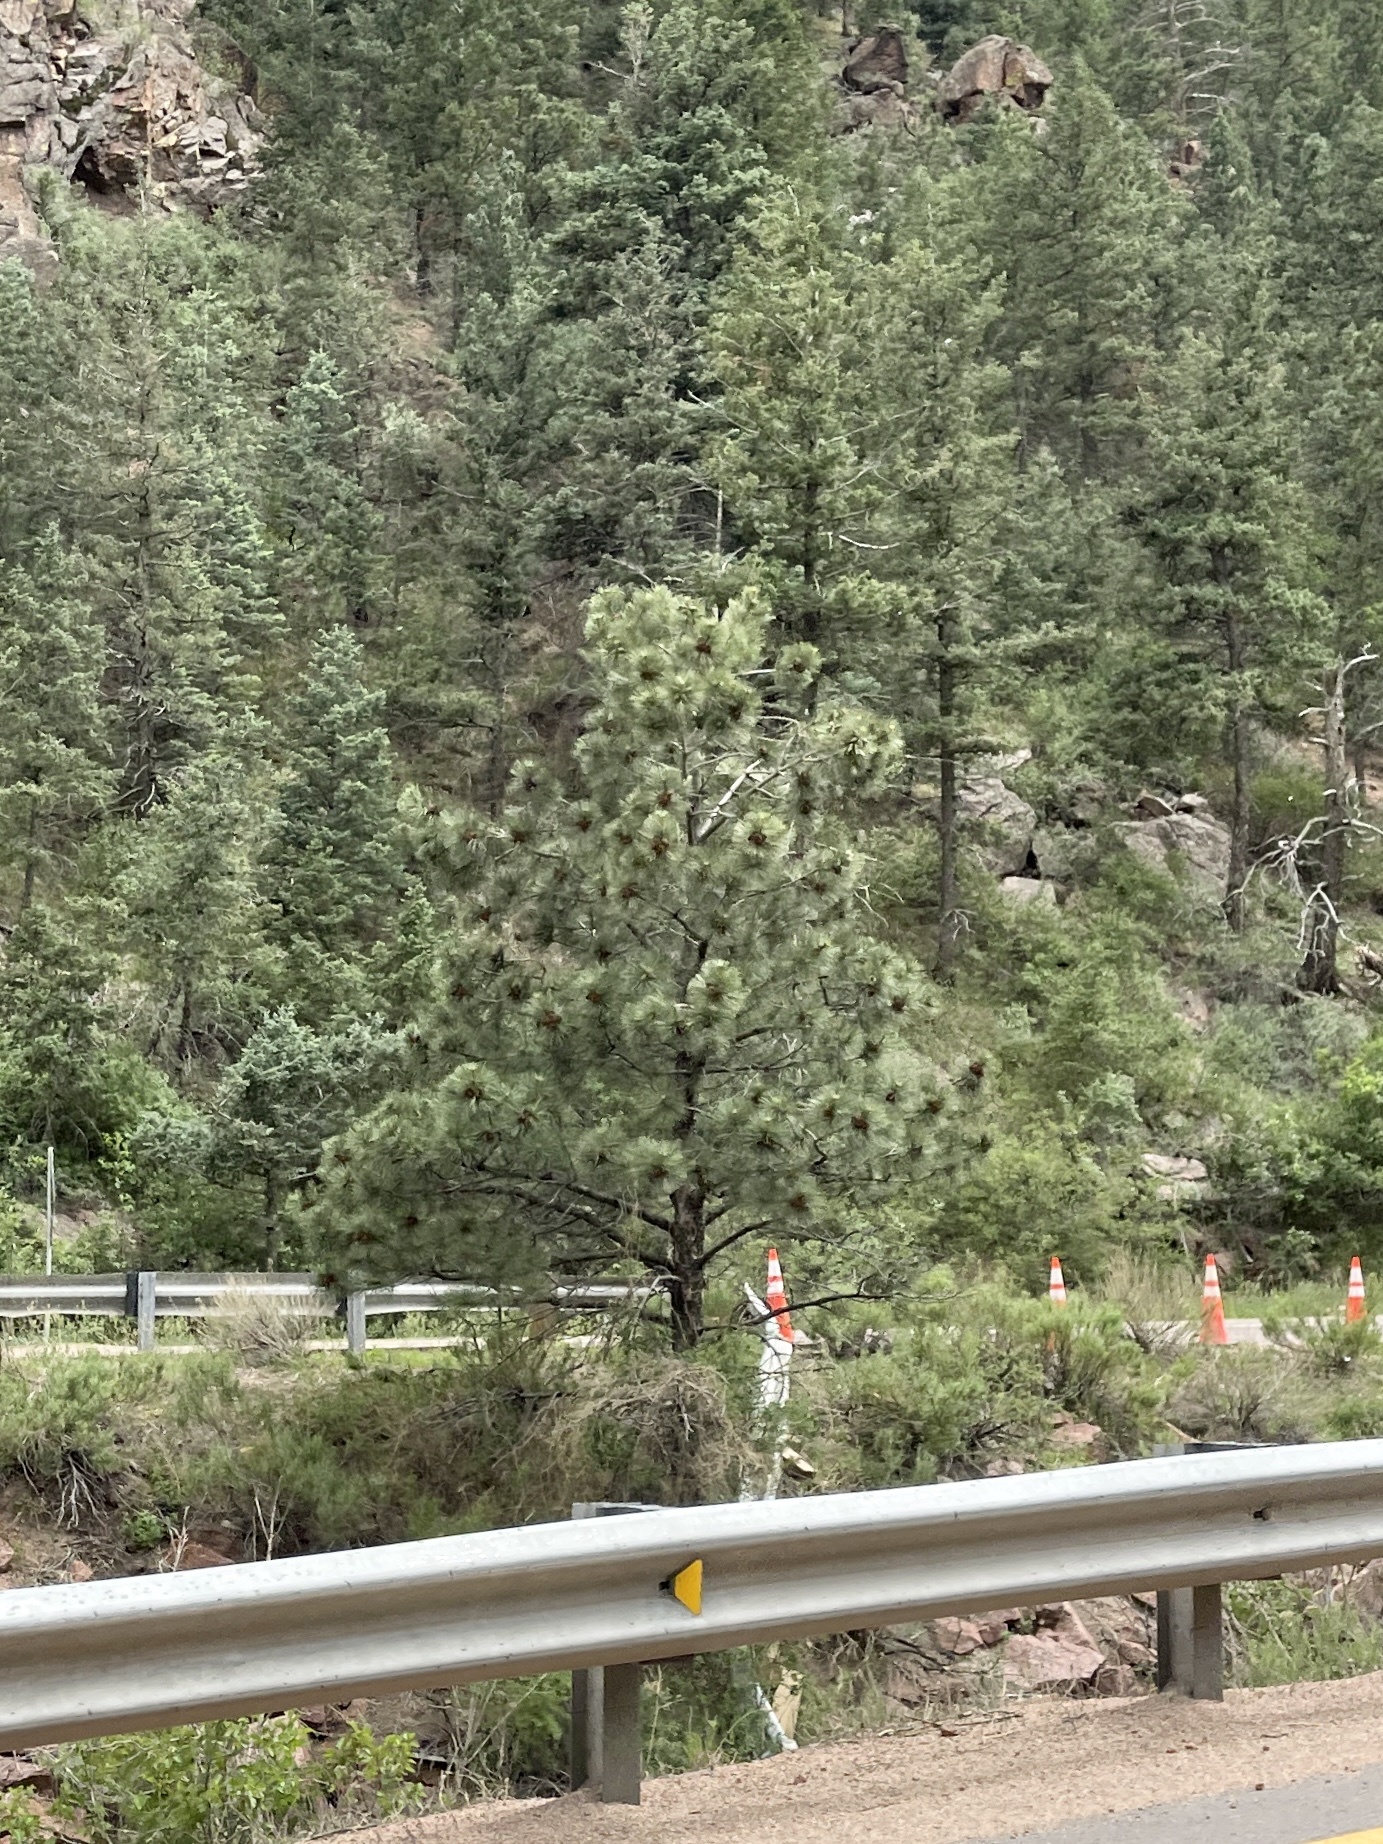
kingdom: Plantae
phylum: Tracheophyta
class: Pinopsida
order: Pinales
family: Pinaceae
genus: Pinus
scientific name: Pinus ponderosa
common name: Western yellow-pine
